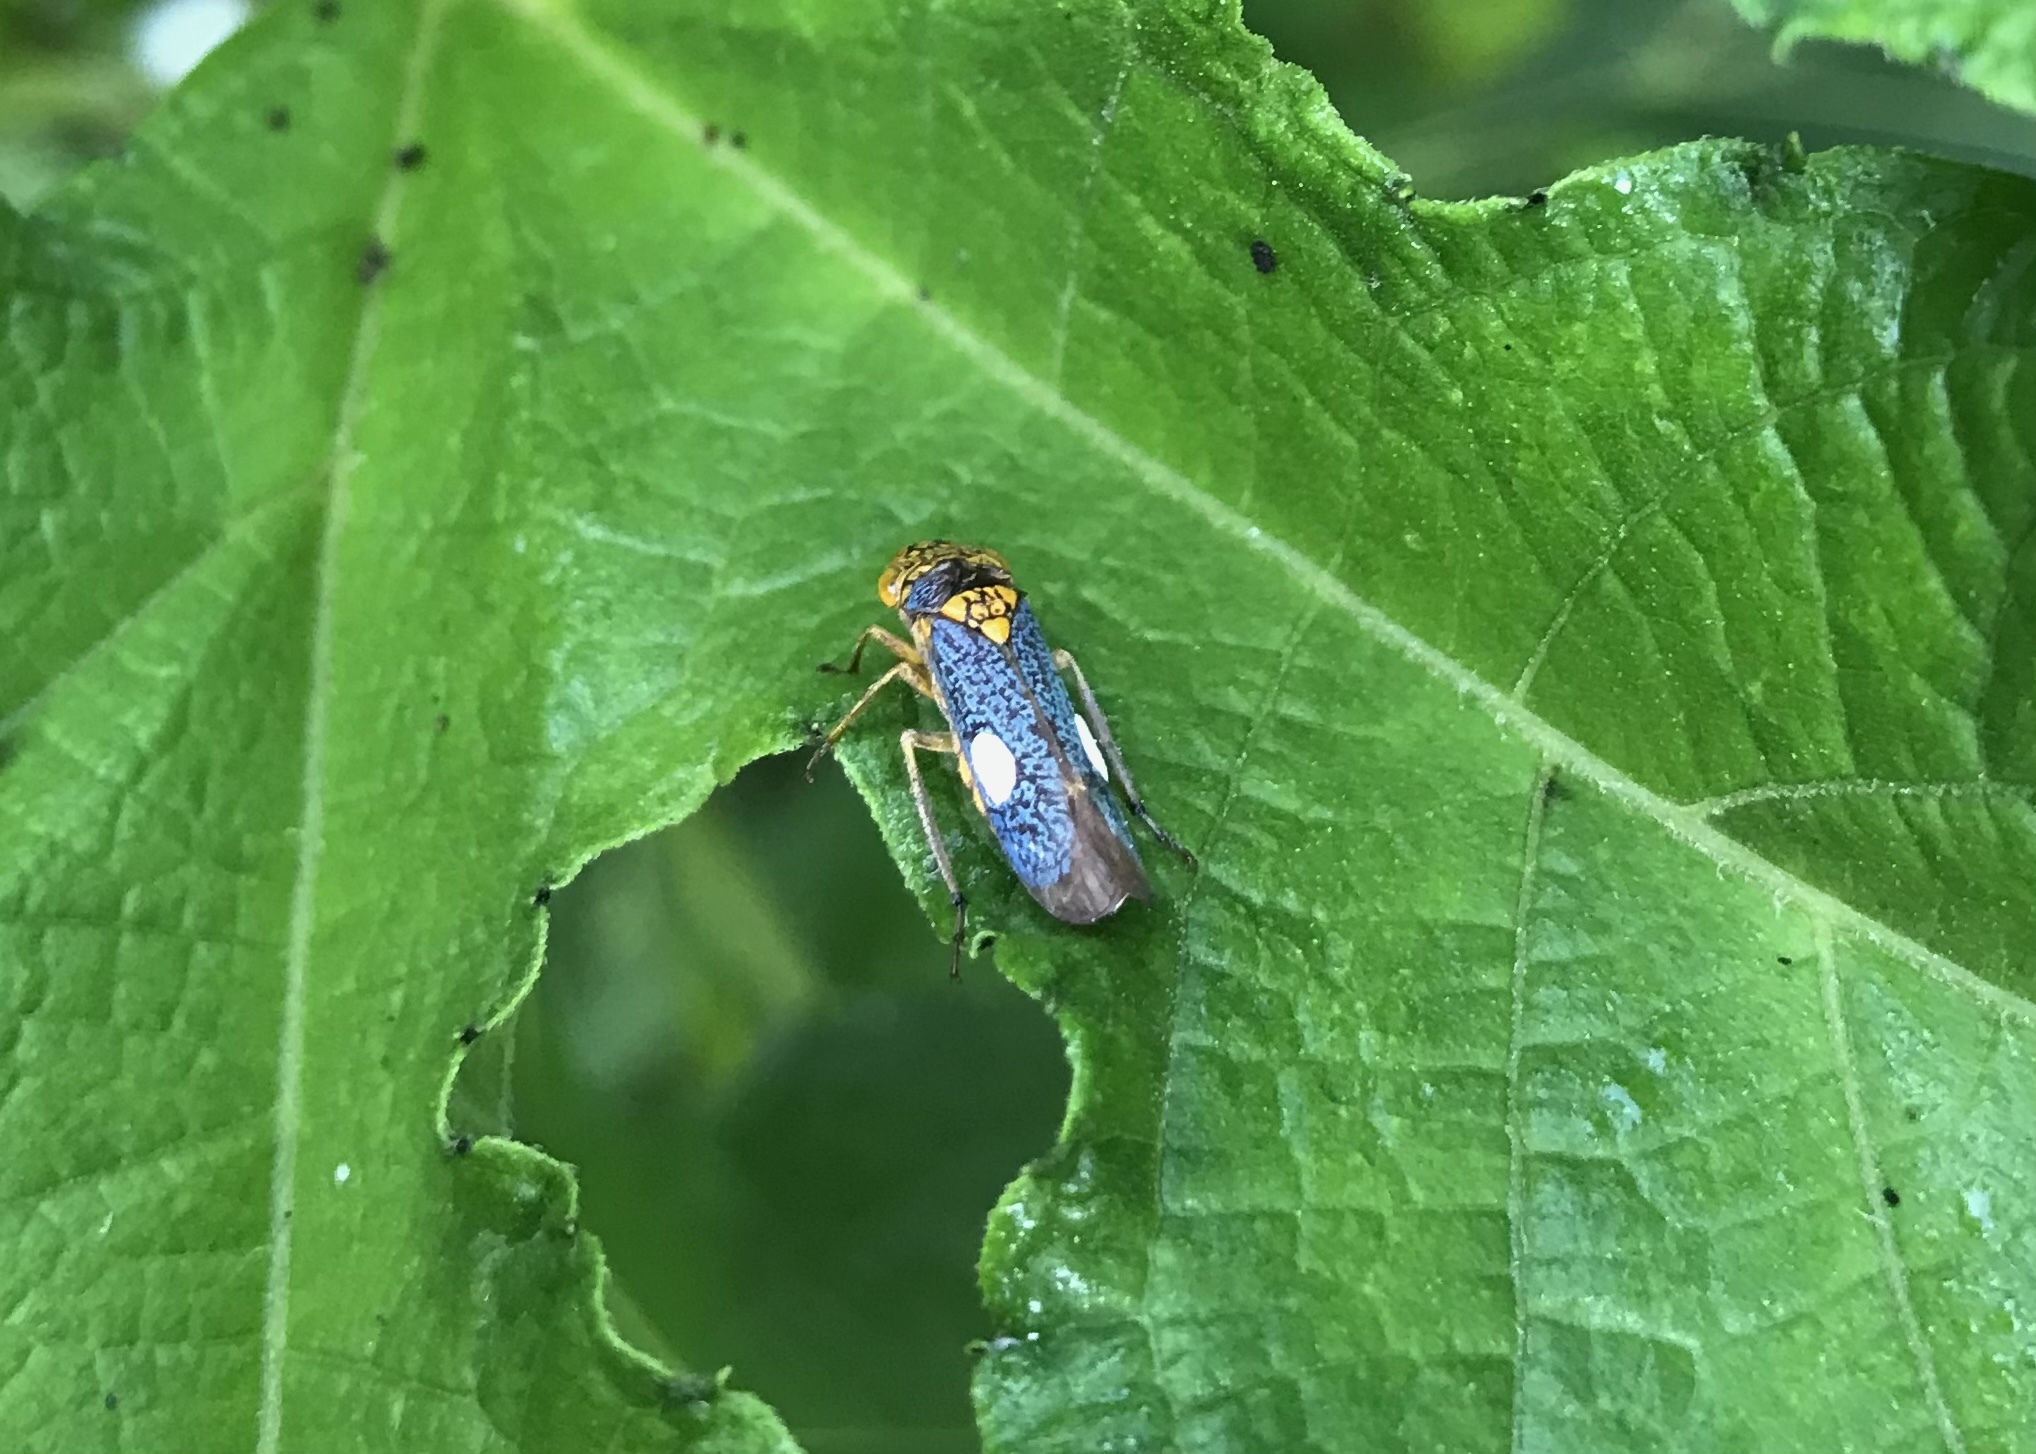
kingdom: Animalia
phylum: Arthropoda
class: Insecta
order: Hemiptera
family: Cicadellidae
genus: Oncometopia
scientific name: Oncometopia orbona
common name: Broad-headed sharpshooter
